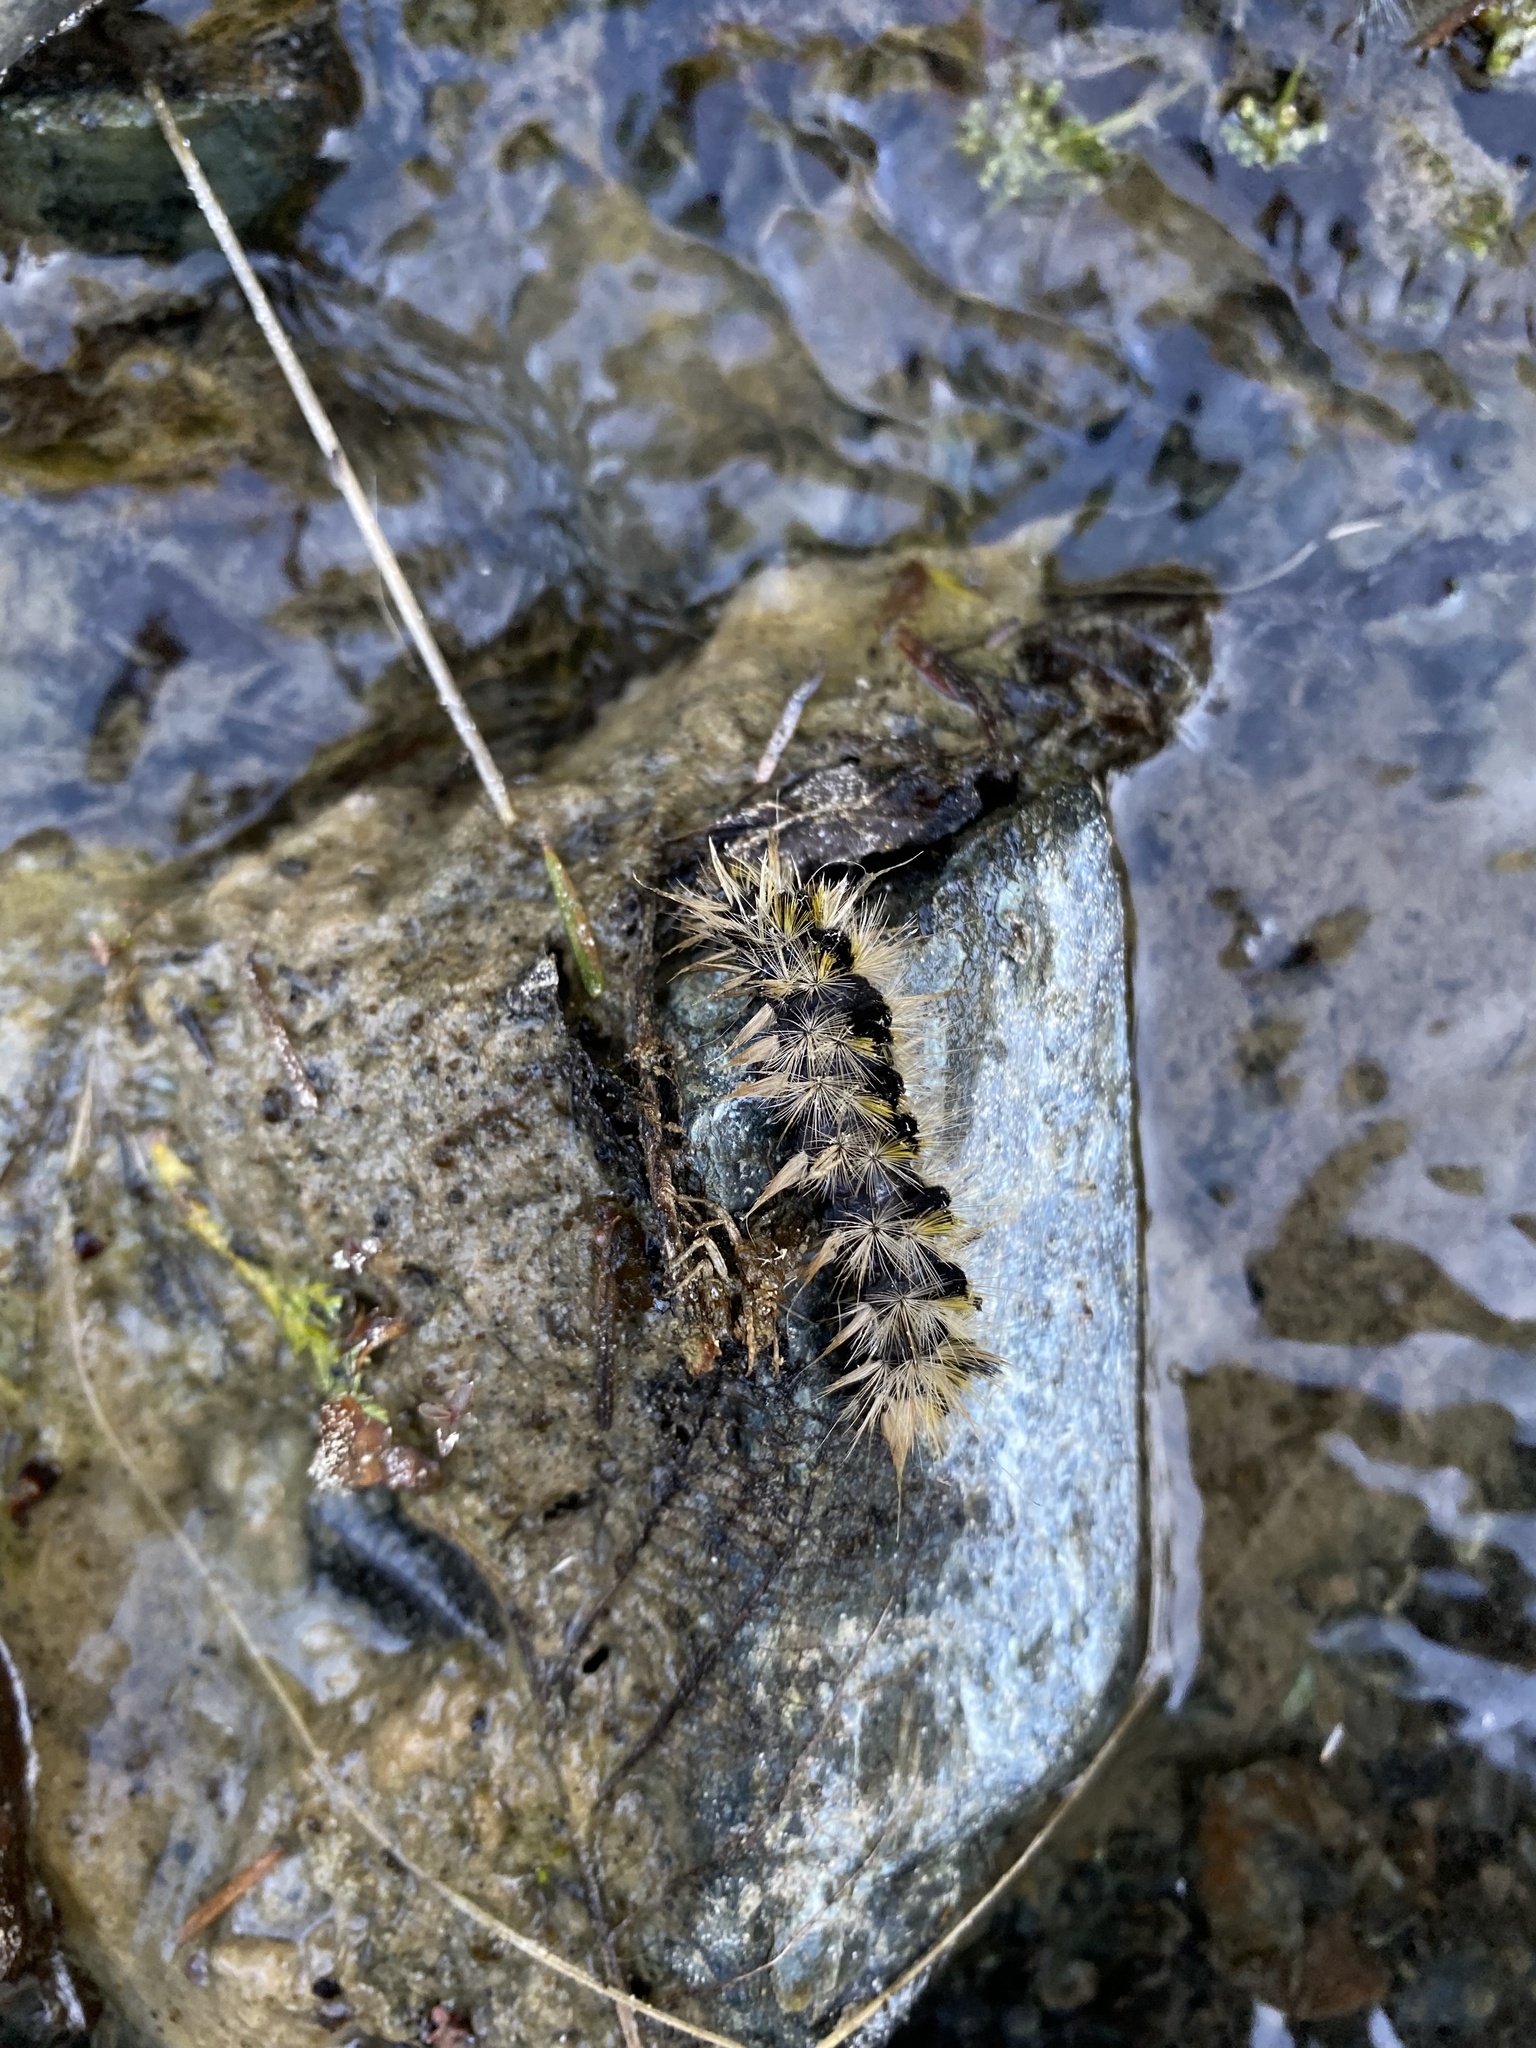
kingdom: Animalia
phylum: Arthropoda
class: Insecta
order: Lepidoptera
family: Erebidae
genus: Lophocampa
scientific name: Lophocampa argentata
